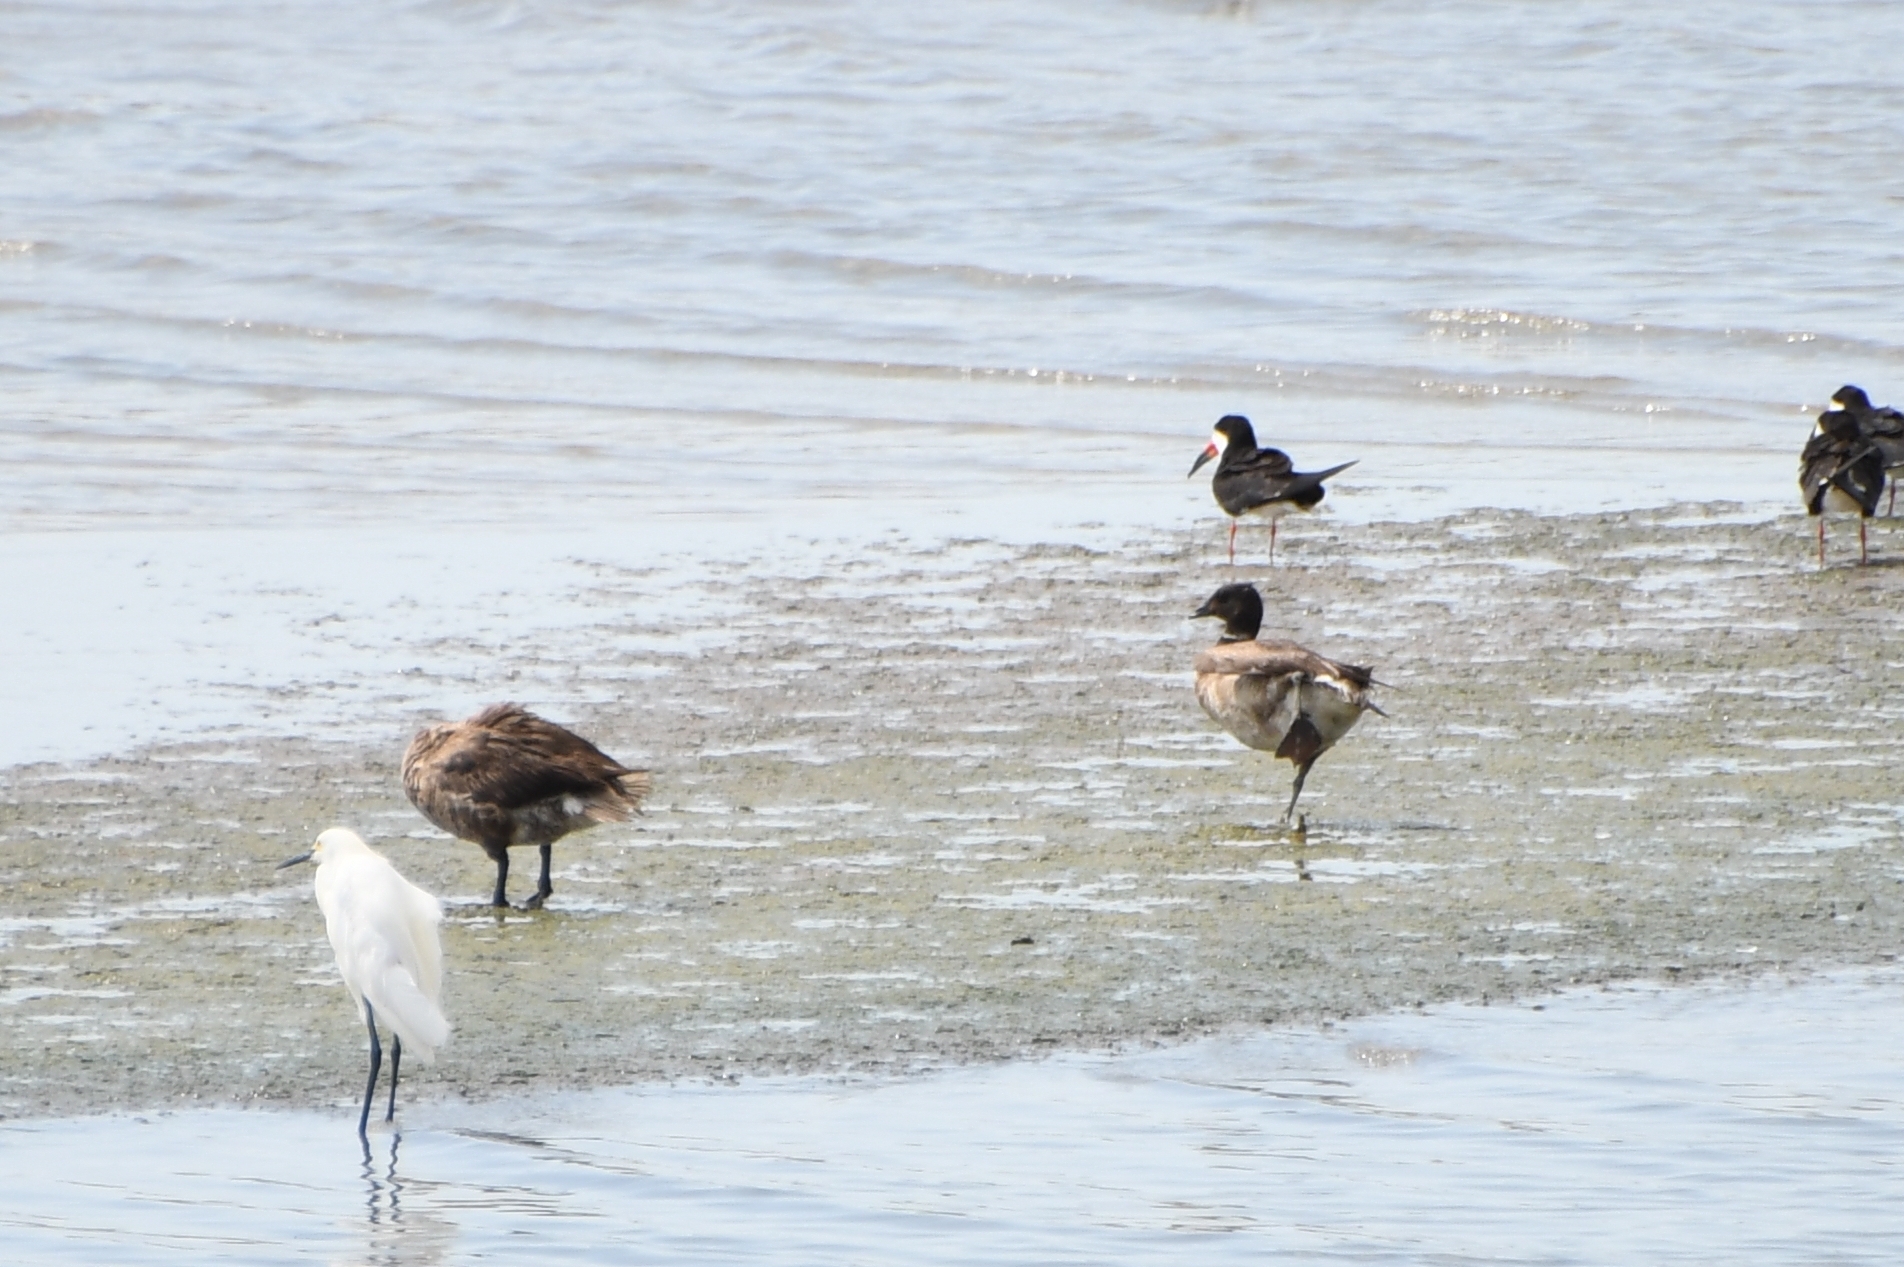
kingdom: Animalia
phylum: Chordata
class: Aves
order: Anseriformes
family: Anatidae
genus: Branta
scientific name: Branta bernicla
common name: Brant goose
